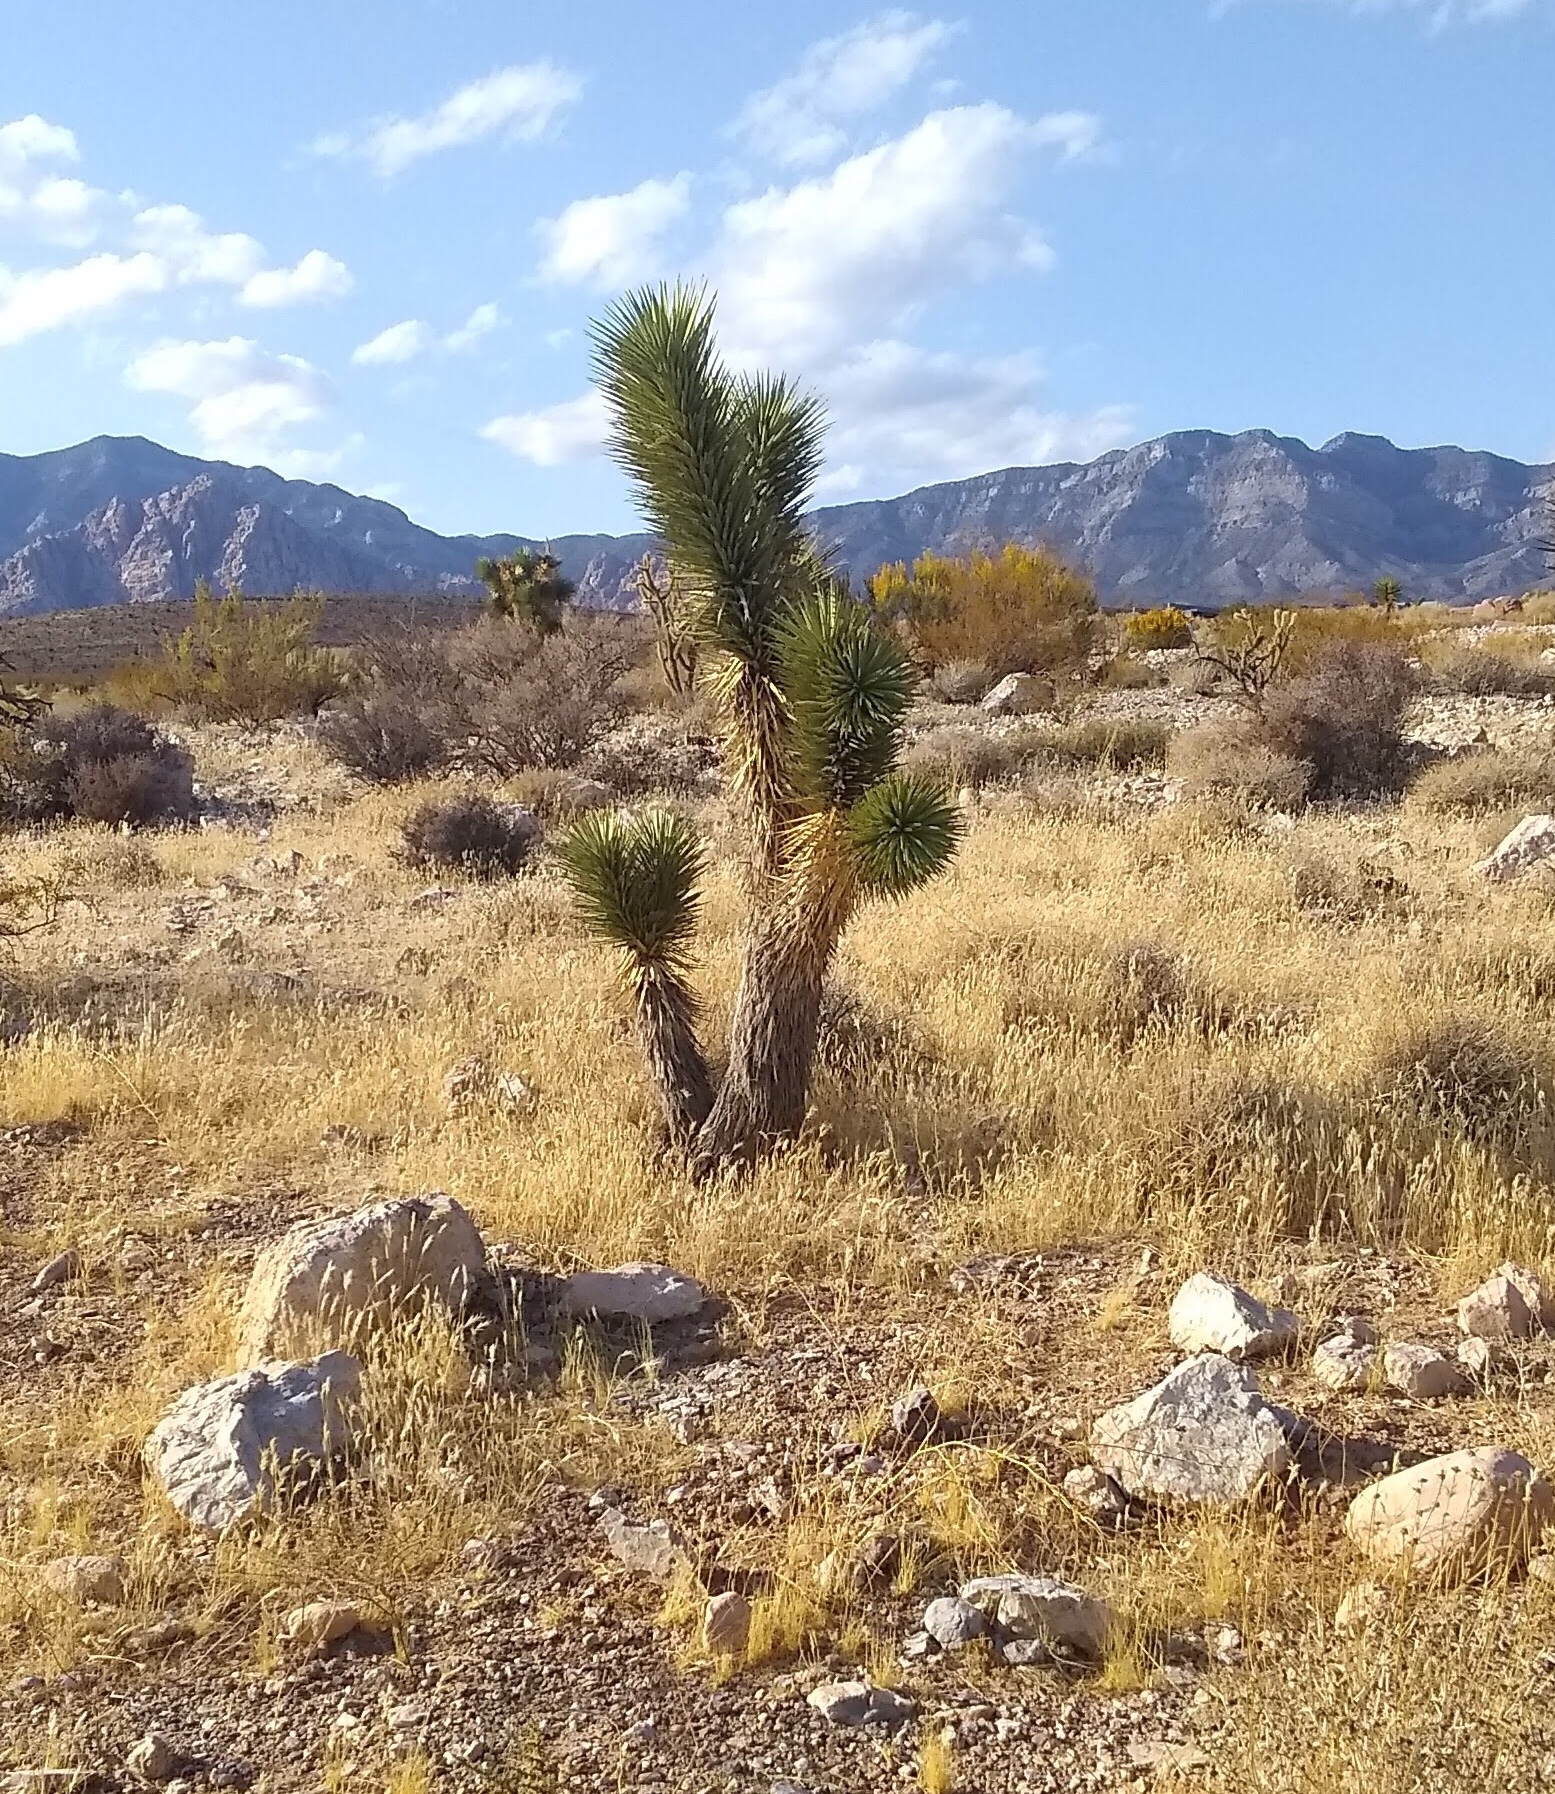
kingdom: Plantae
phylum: Tracheophyta
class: Liliopsida
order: Asparagales
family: Asparagaceae
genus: Yucca
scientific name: Yucca brevifolia
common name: Joshua tree
